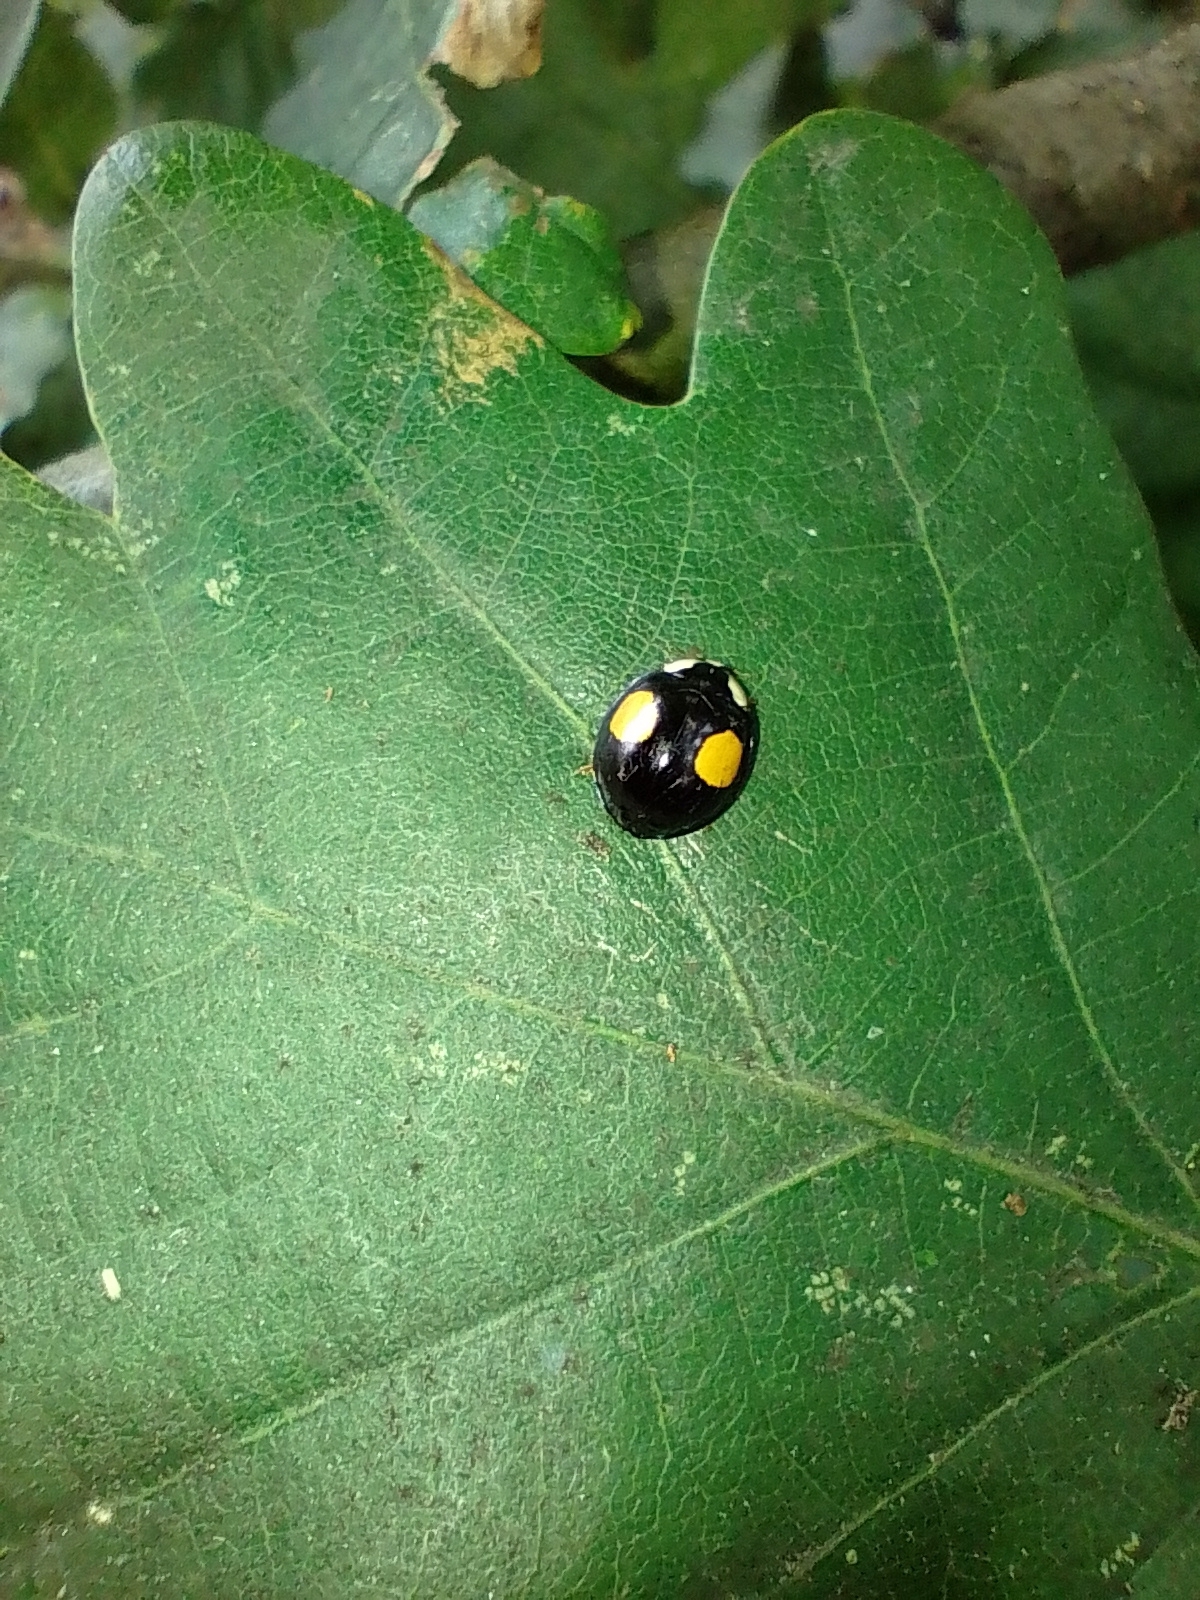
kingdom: Animalia
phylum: Arthropoda
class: Insecta
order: Coleoptera
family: Coccinellidae
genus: Harmonia
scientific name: Harmonia axyridis
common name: Harlequin ladybird
